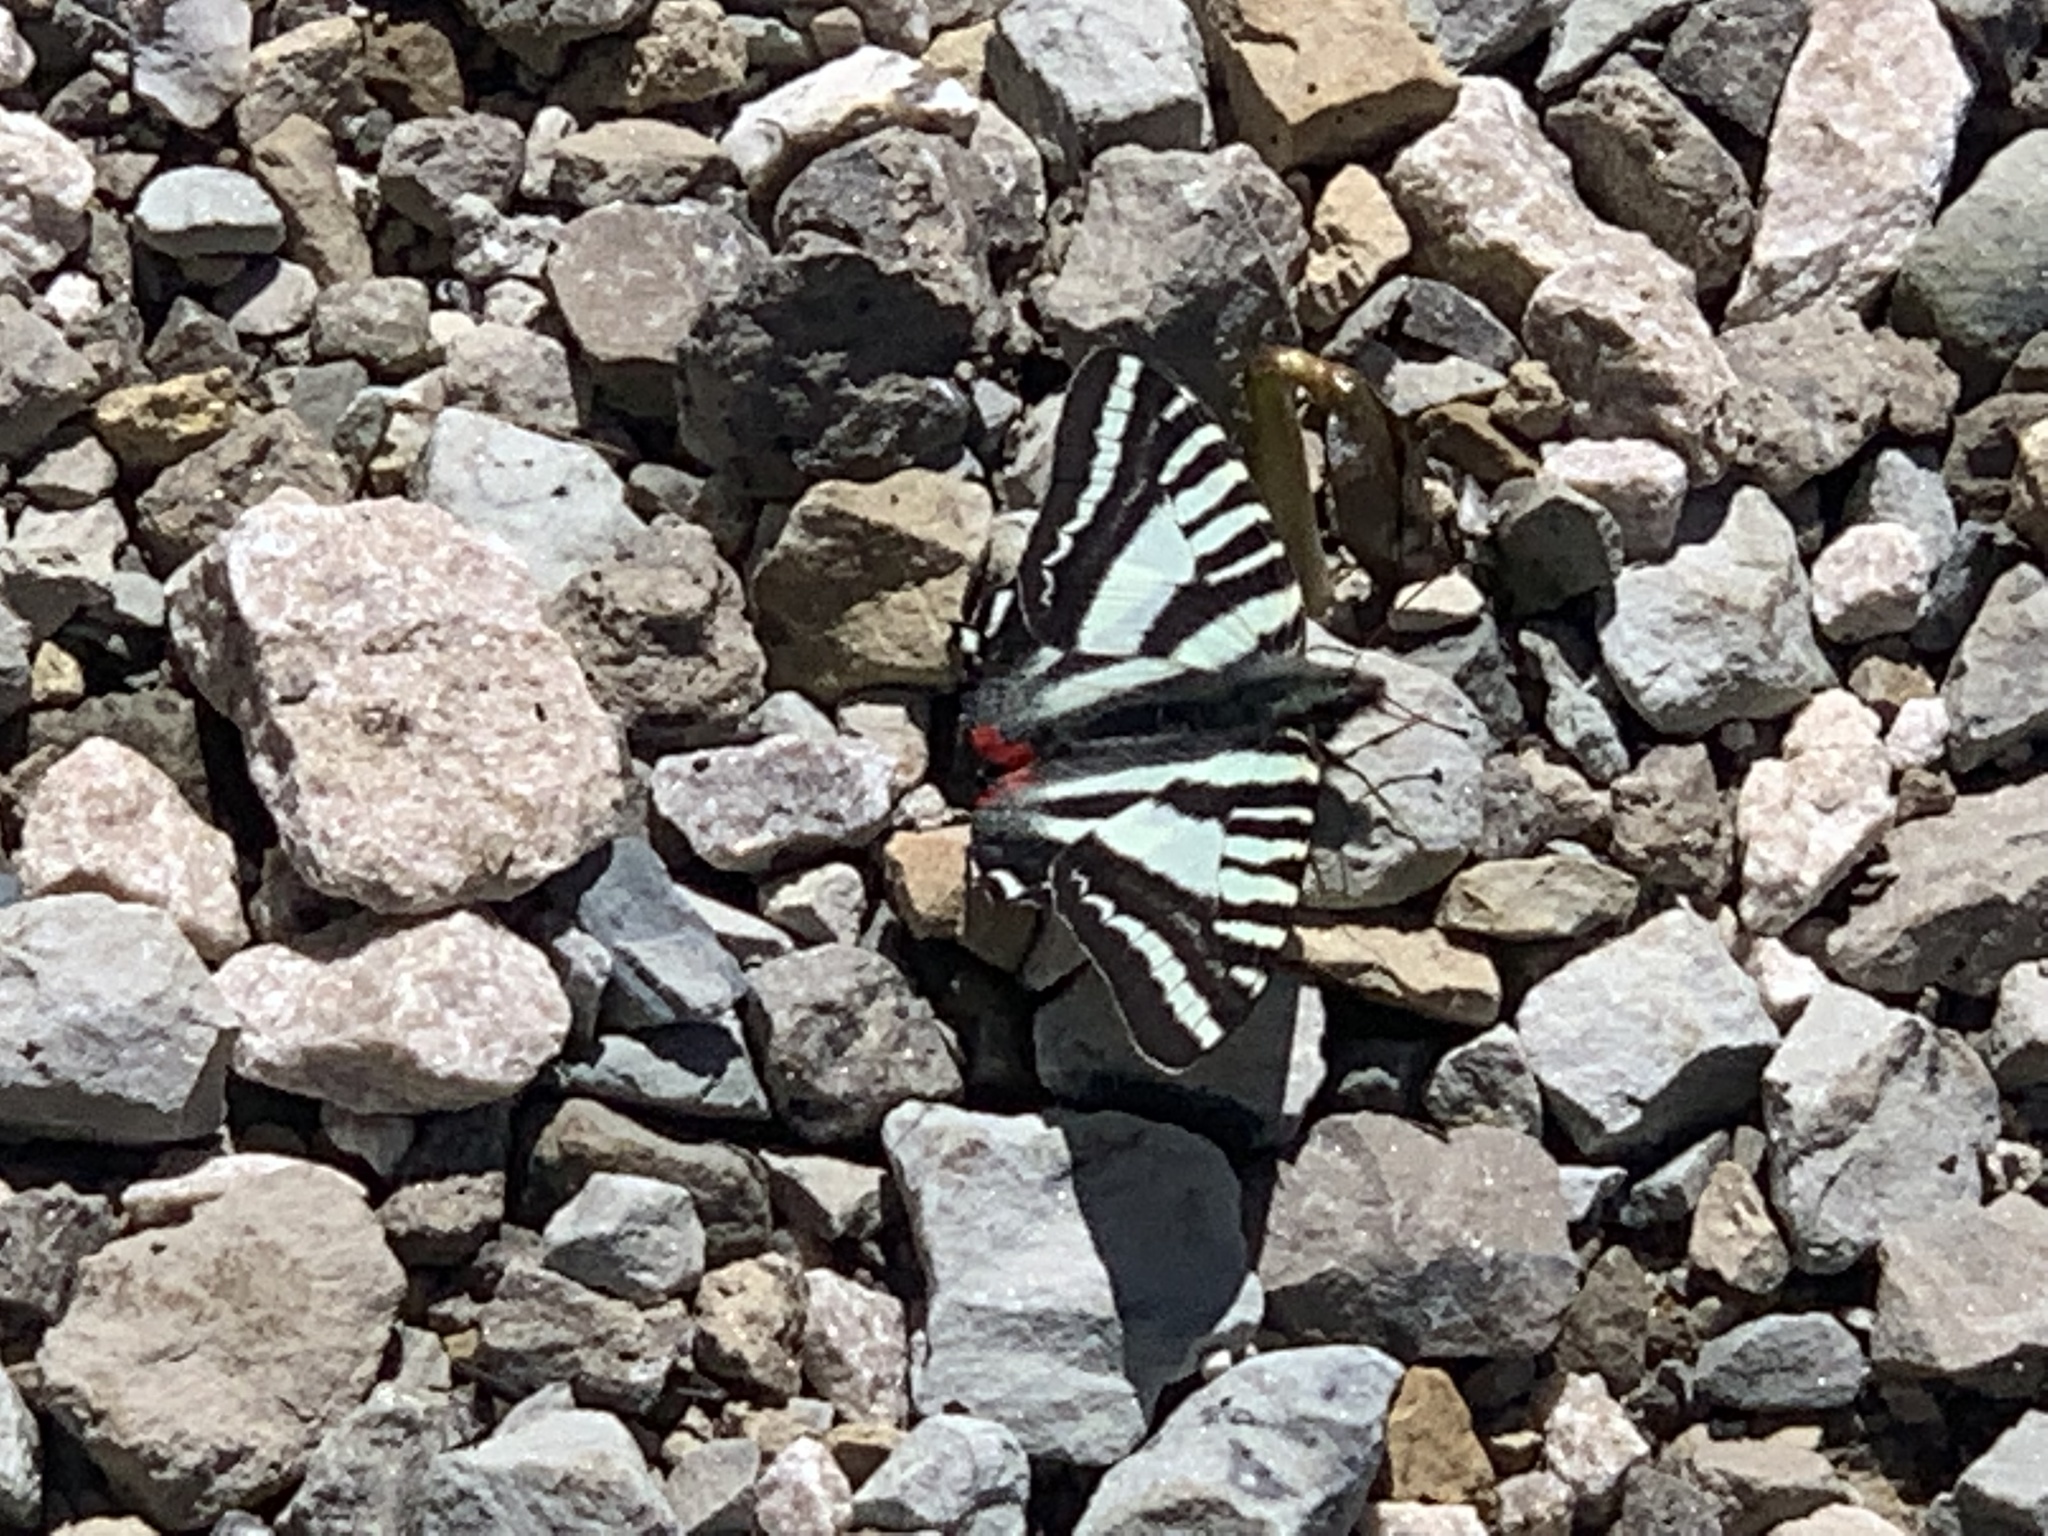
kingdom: Animalia
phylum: Arthropoda
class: Insecta
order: Lepidoptera
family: Papilionidae
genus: Protographium
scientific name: Protographium marcellus
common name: Zebra swallowtail
